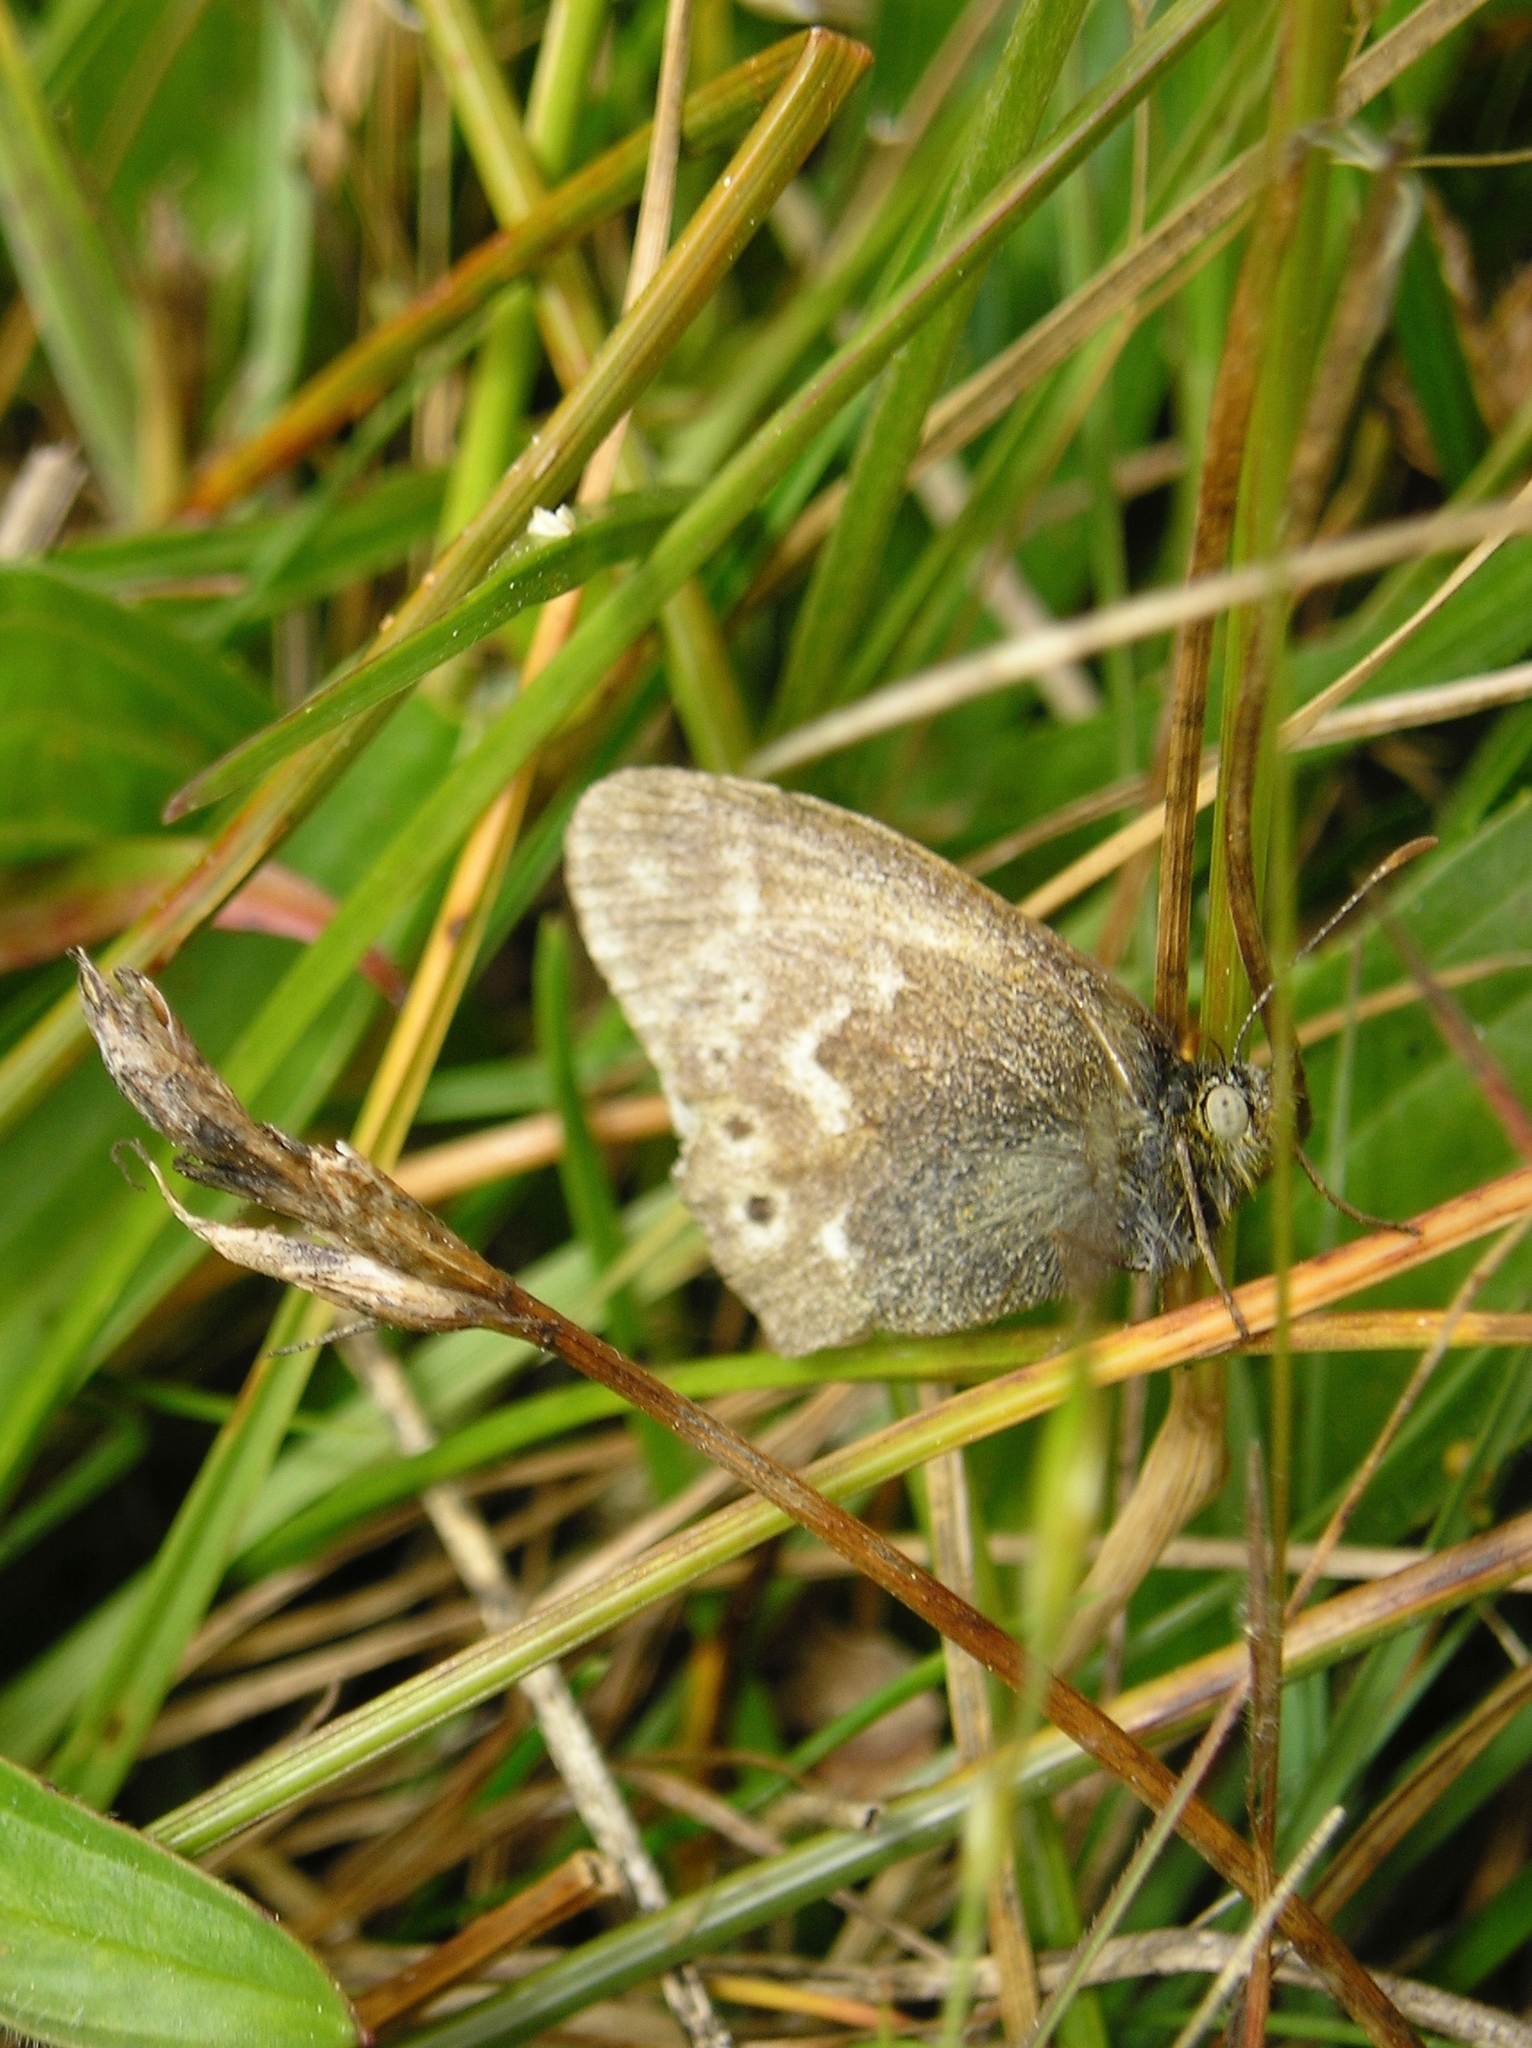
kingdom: Animalia
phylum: Arthropoda
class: Insecta
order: Lepidoptera
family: Nymphalidae
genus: Coenonympha
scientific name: Coenonympha california
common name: Common ringlet
